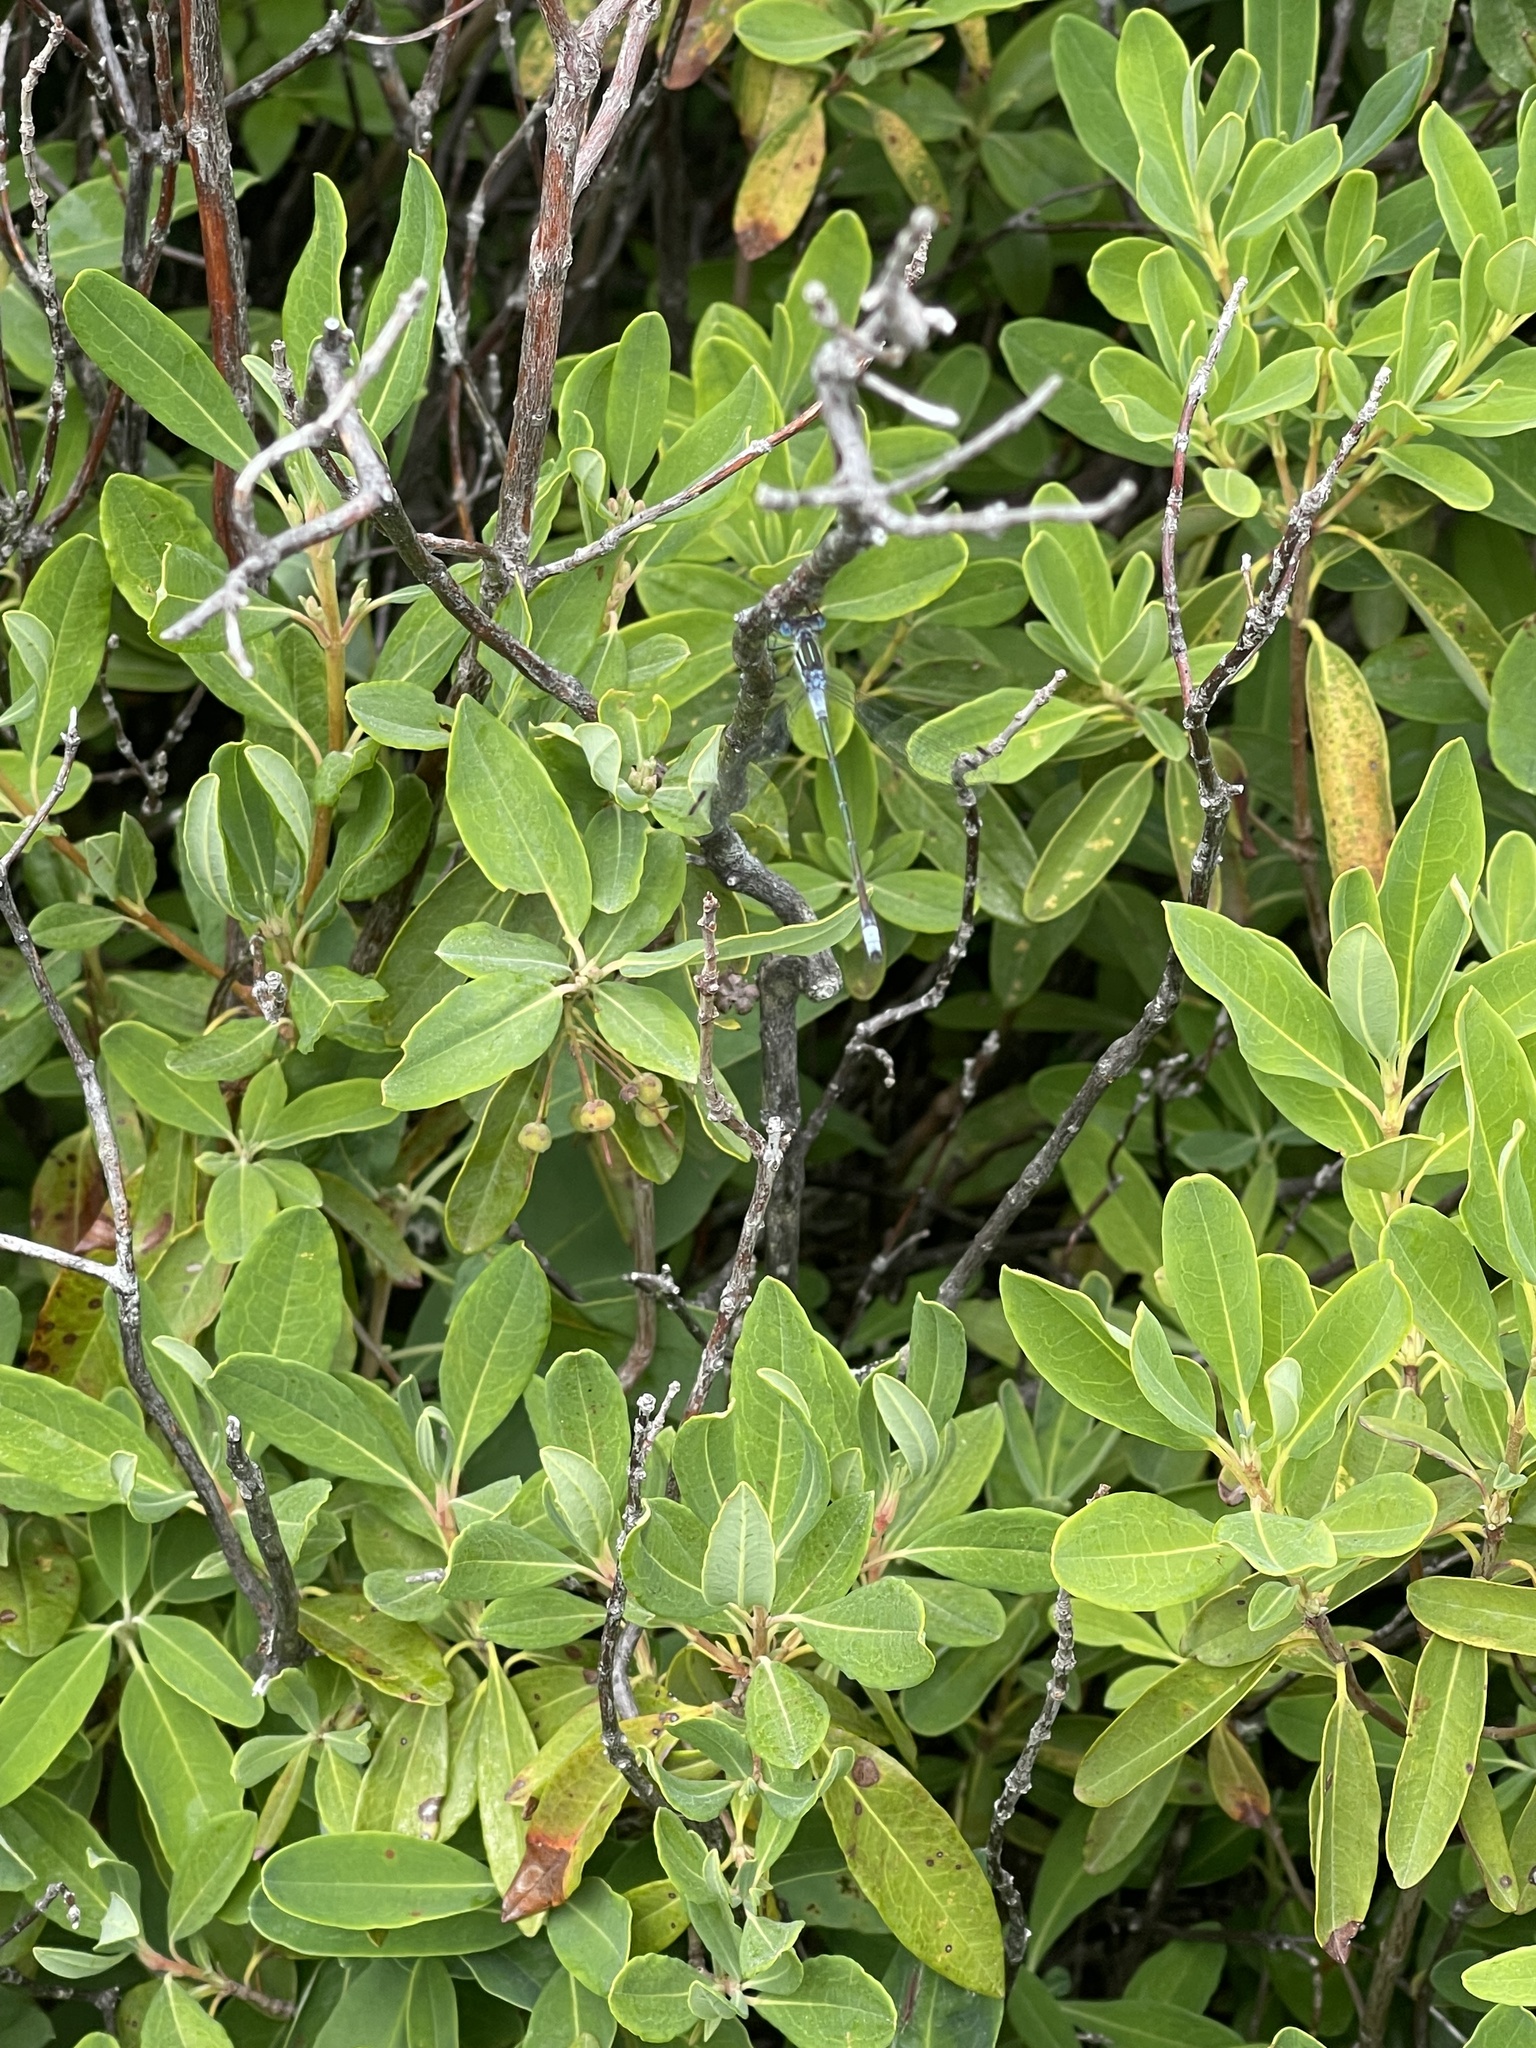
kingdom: Animalia
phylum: Arthropoda
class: Insecta
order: Odonata
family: Lestidae
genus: Lestes
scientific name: Lestes disjunctus
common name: Northern spreadwing
